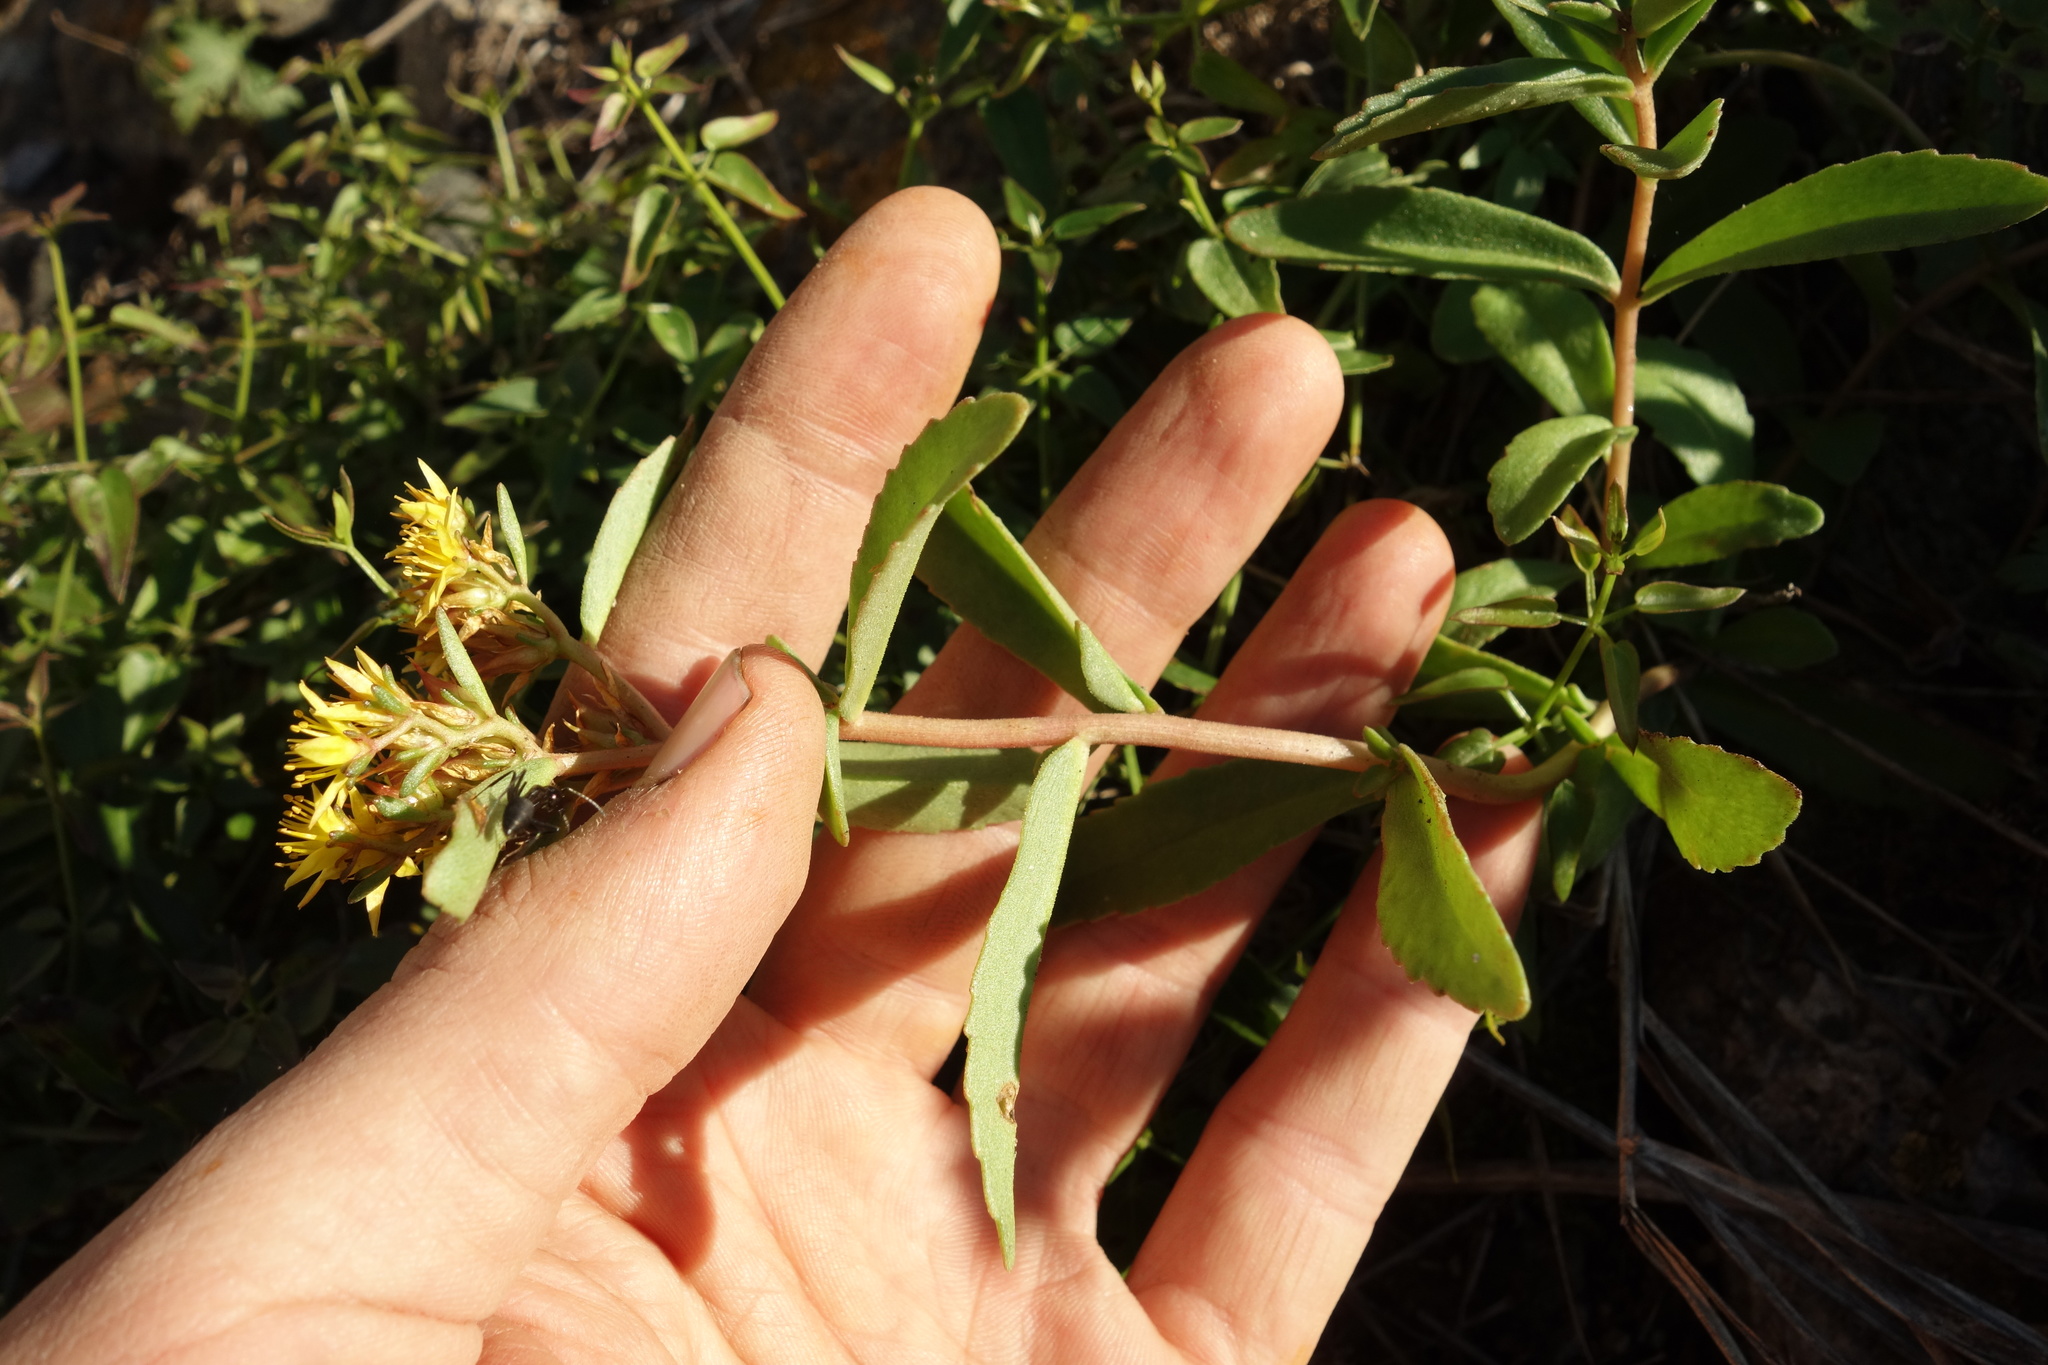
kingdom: Plantae
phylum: Tracheophyta
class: Magnoliopsida
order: Saxifragales
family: Crassulaceae
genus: Phedimus
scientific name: Phedimus aizoon
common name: Orpin aizoon
